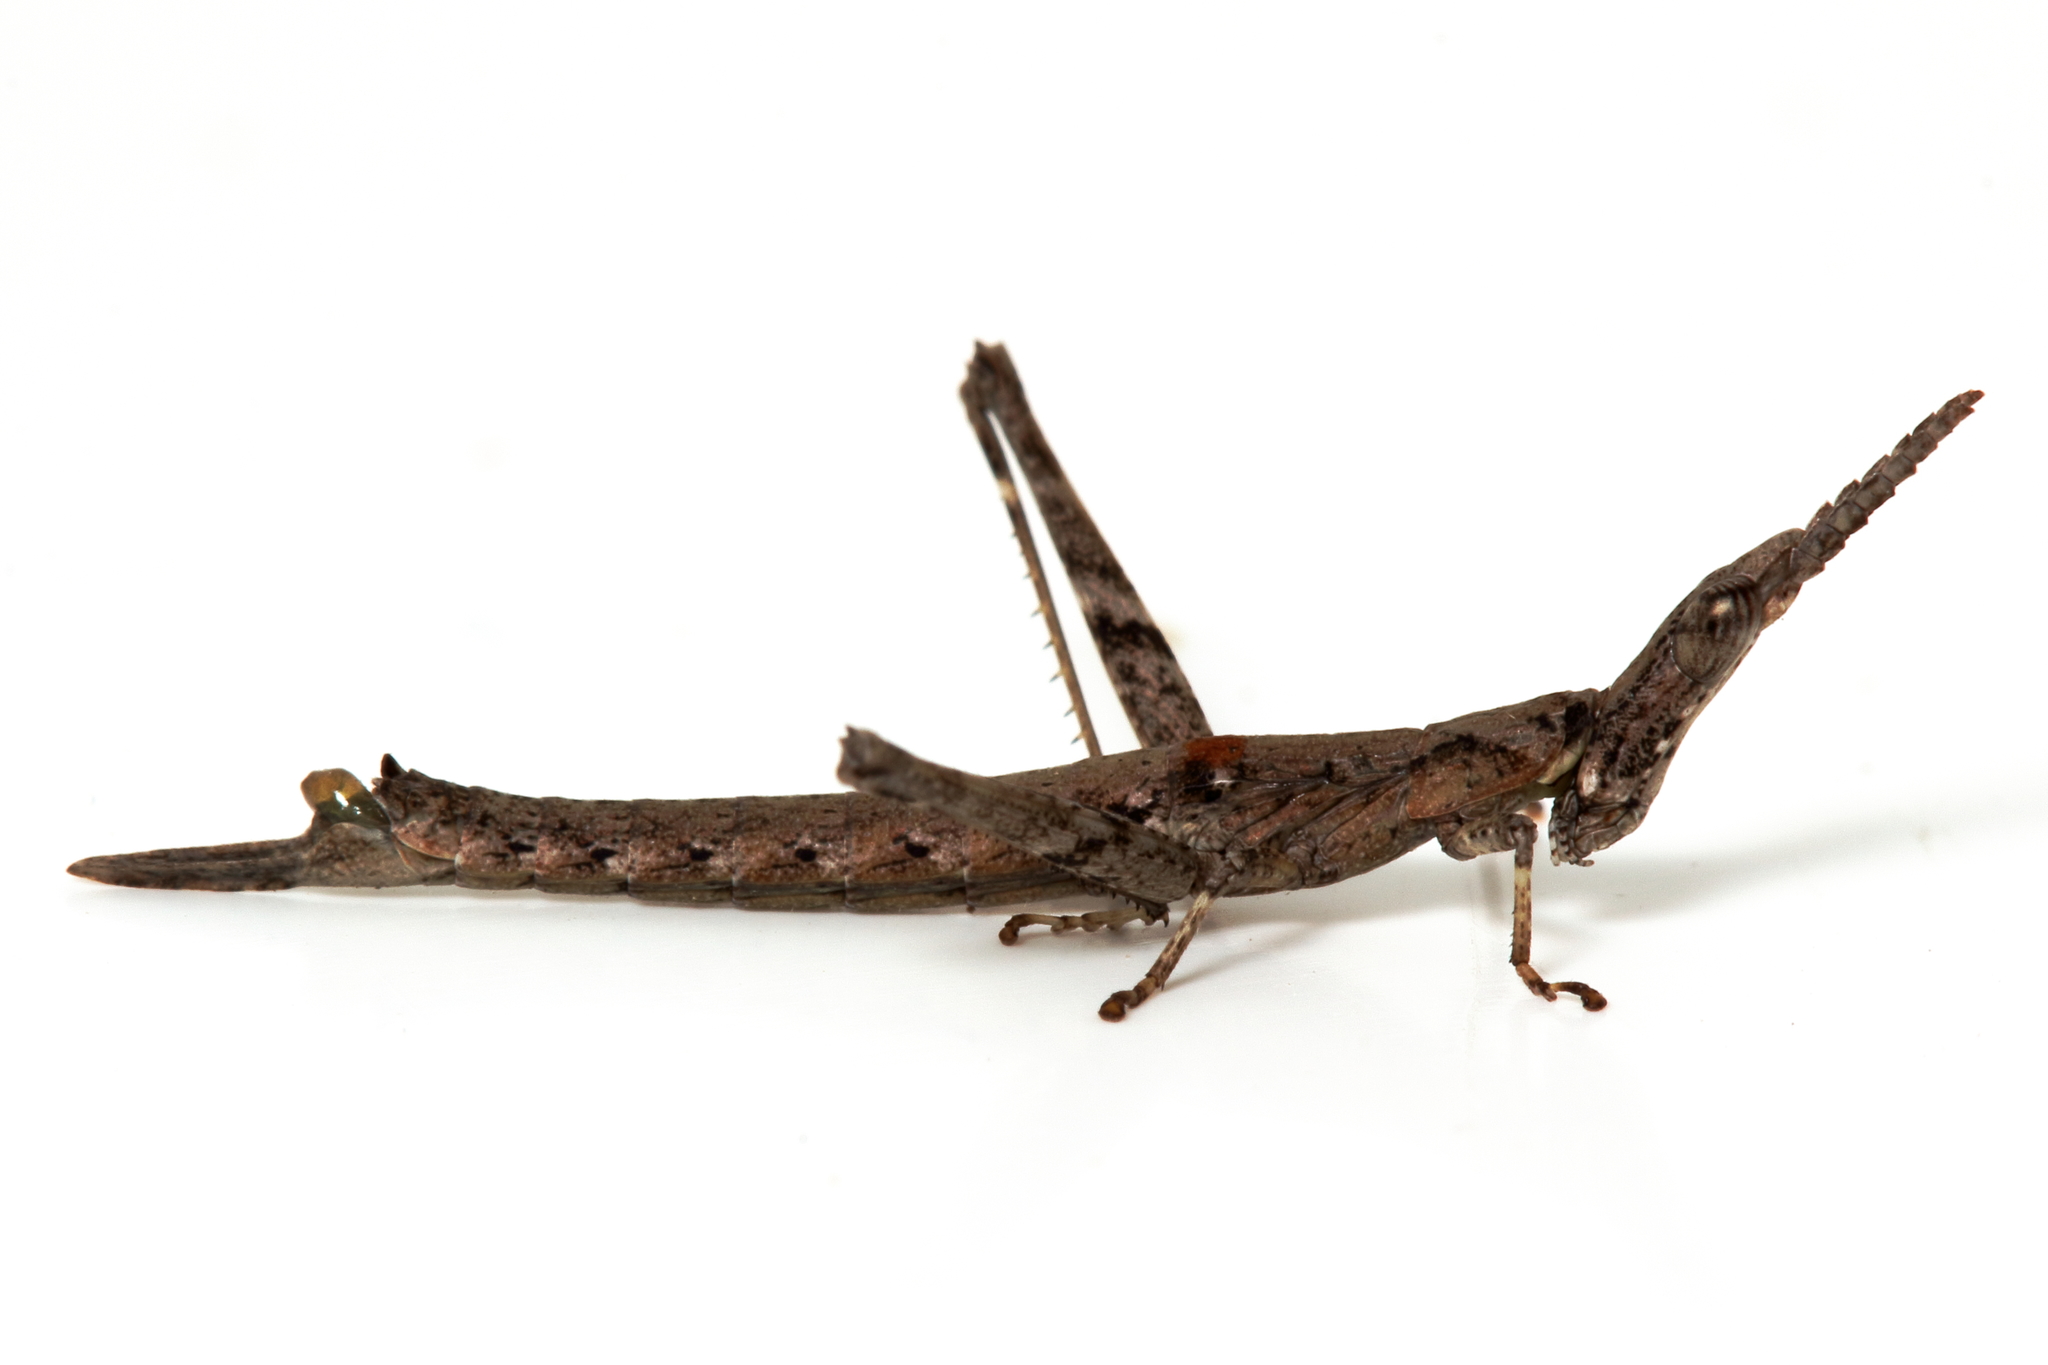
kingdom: Animalia
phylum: Arthropoda
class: Insecta
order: Orthoptera
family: Morabidae
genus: Vandiemenella
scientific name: Vandiemenella viatica
